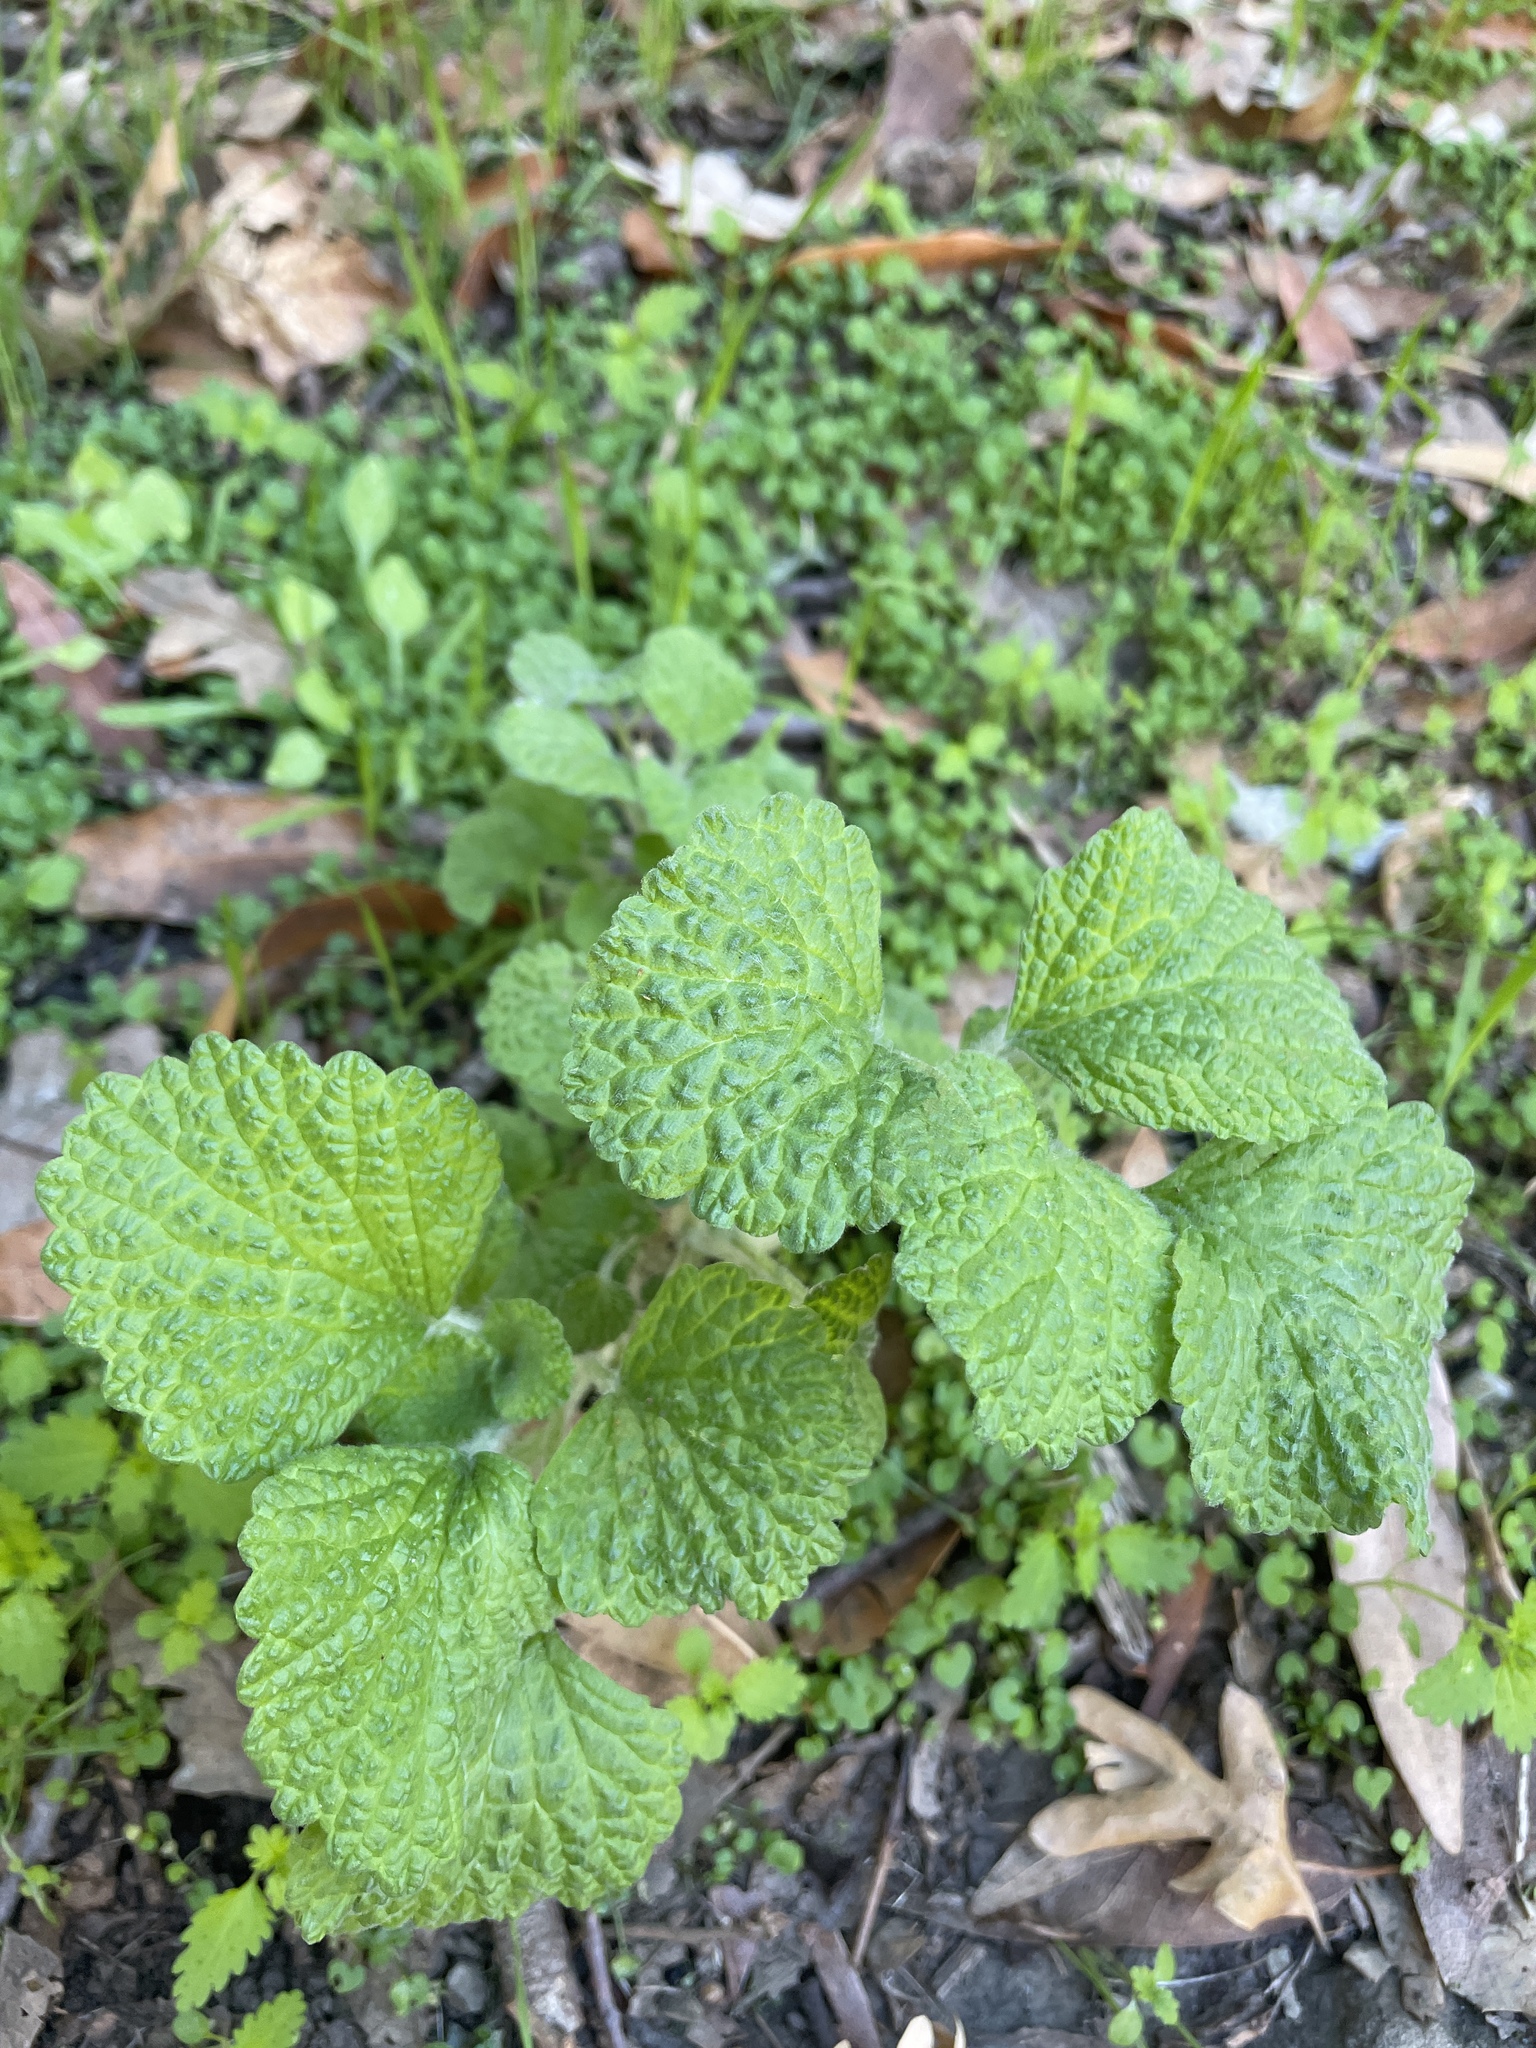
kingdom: Plantae
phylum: Tracheophyta
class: Magnoliopsida
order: Lamiales
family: Lamiaceae
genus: Marrubium
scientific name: Marrubium vulgare
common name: Horehound
